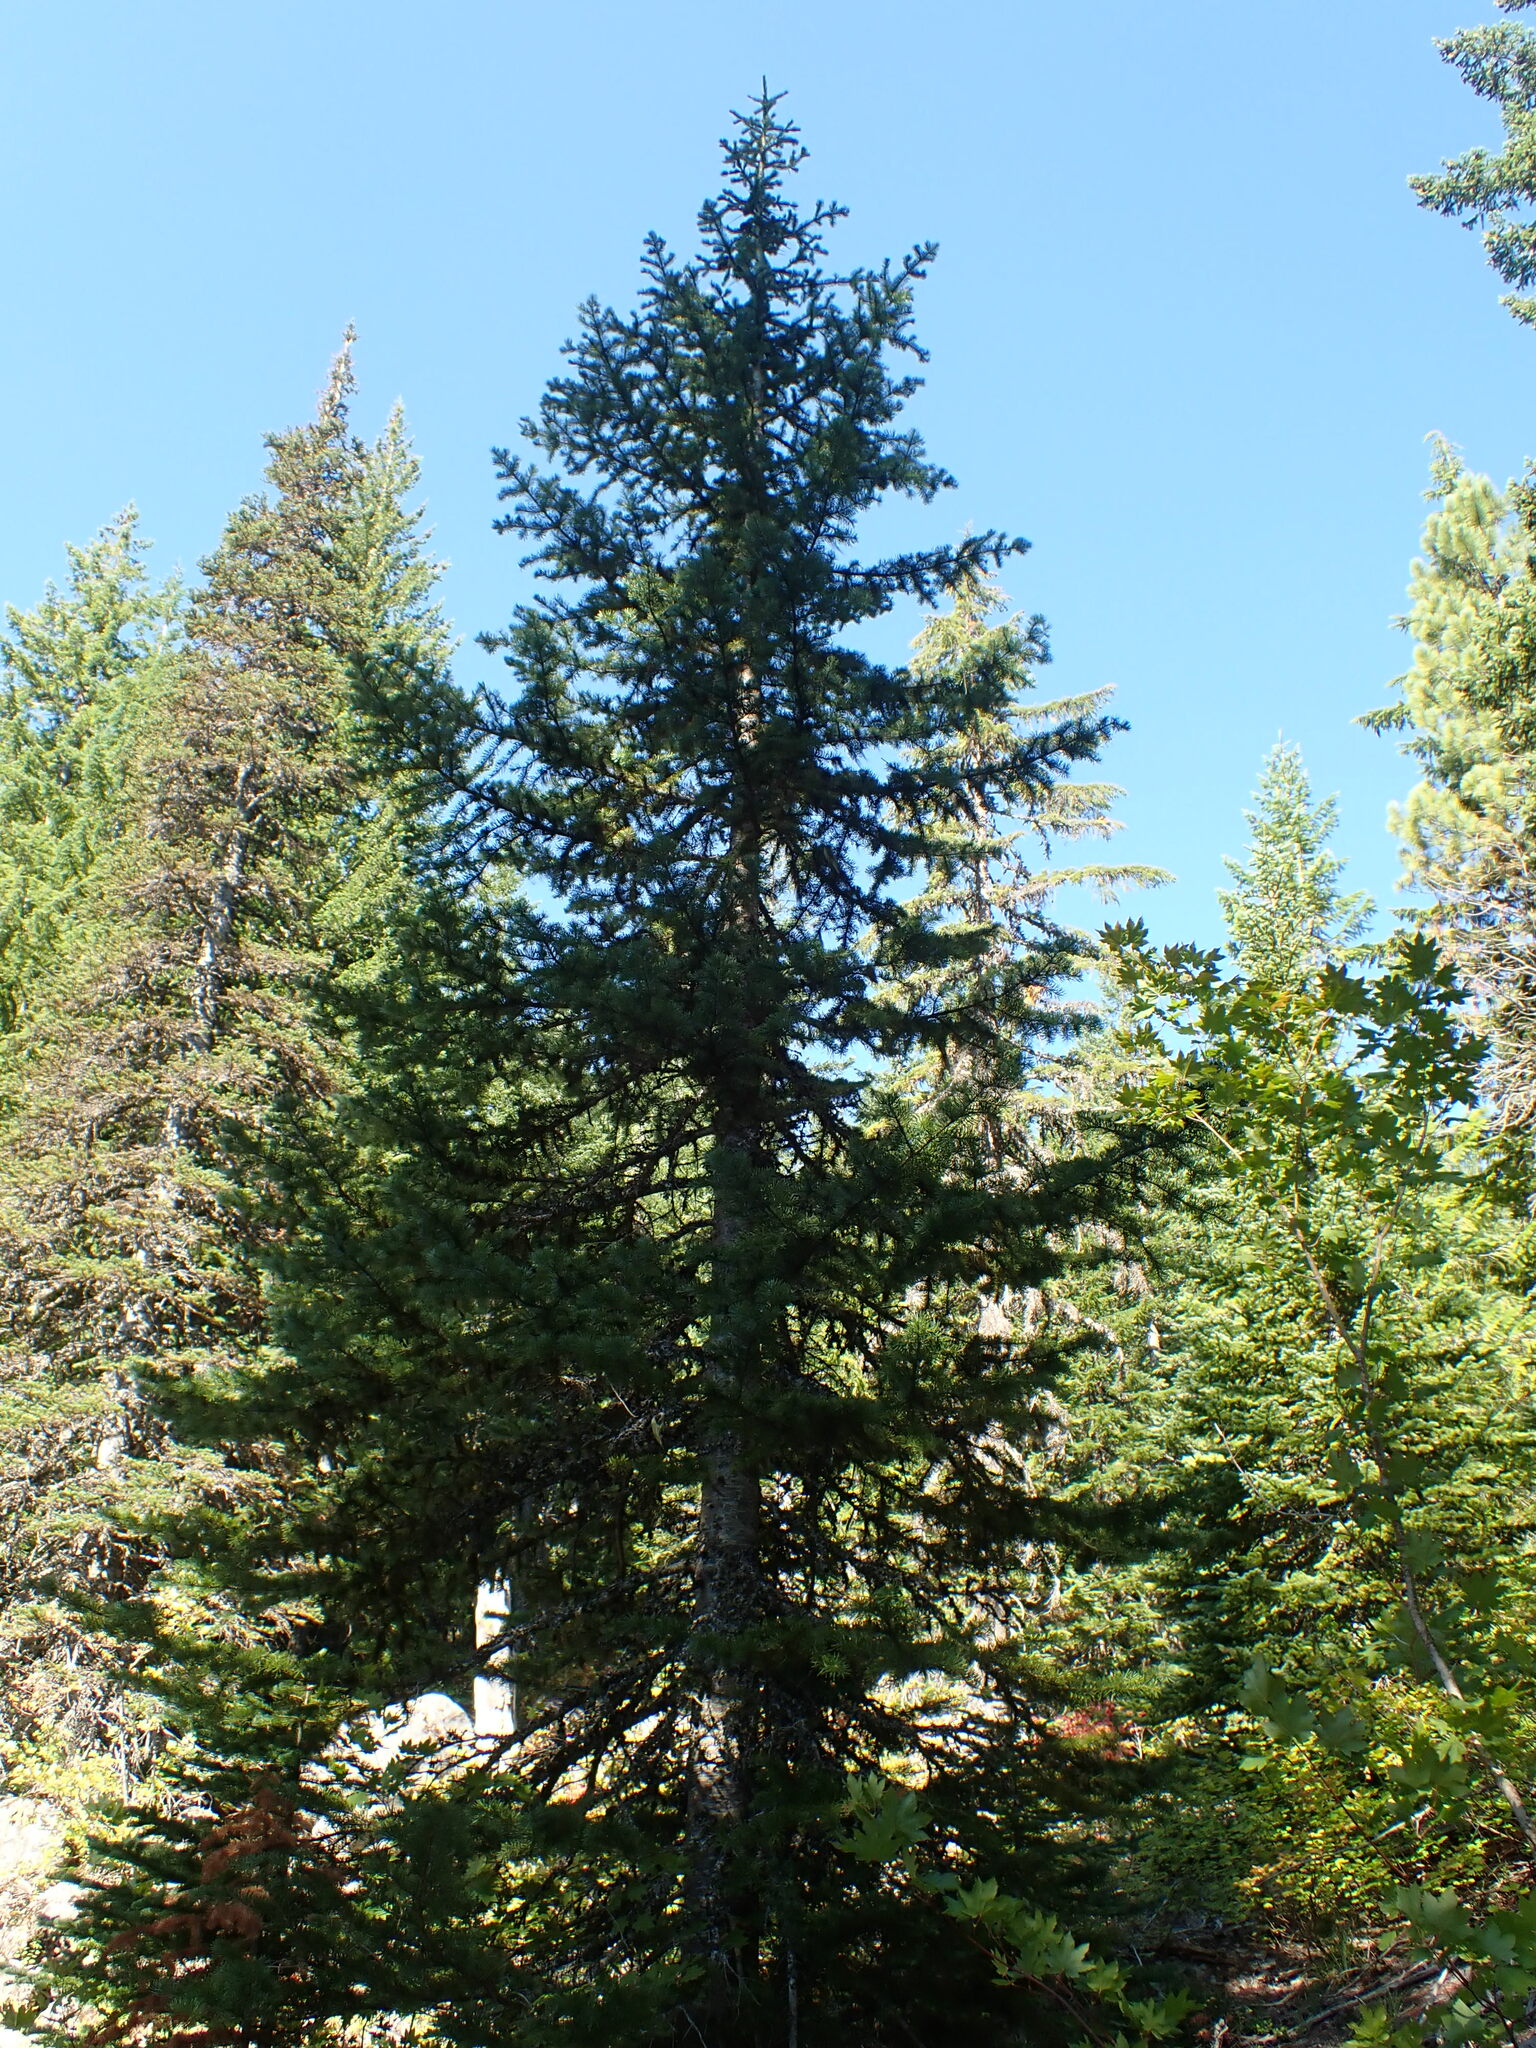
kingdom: Plantae
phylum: Tracheophyta
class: Pinopsida
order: Pinales
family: Pinaceae
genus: Abies
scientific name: Abies lasiocarpa
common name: Subalpine fir
